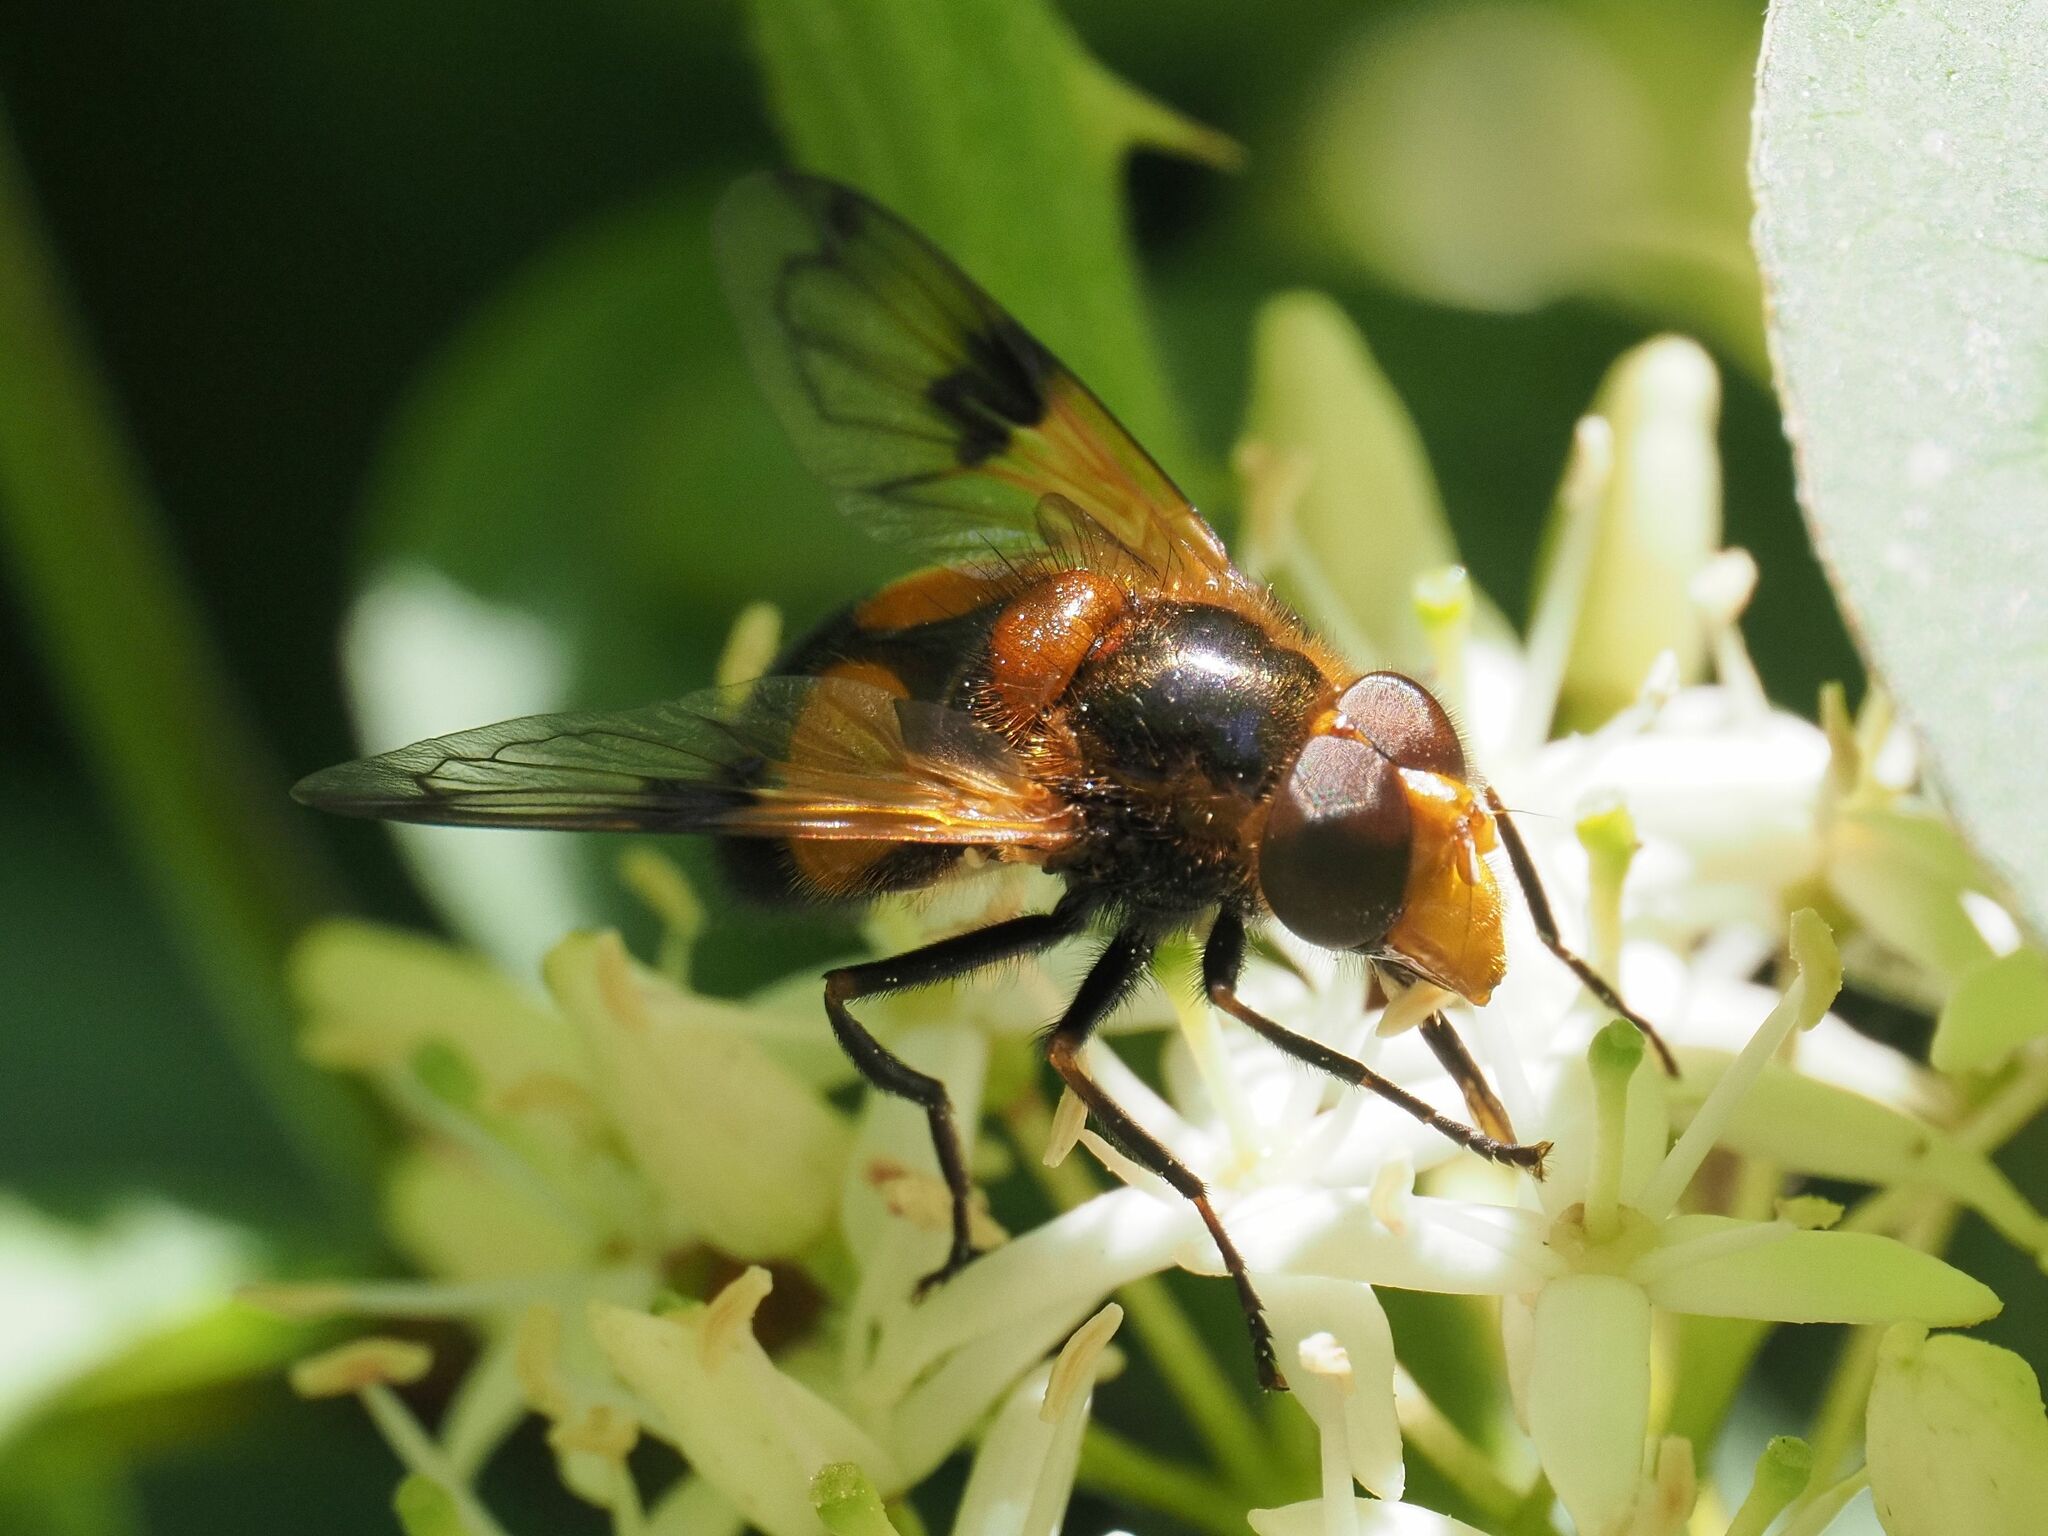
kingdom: Animalia
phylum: Arthropoda
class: Insecta
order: Diptera
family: Syrphidae
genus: Volucella
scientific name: Volucella inflata
